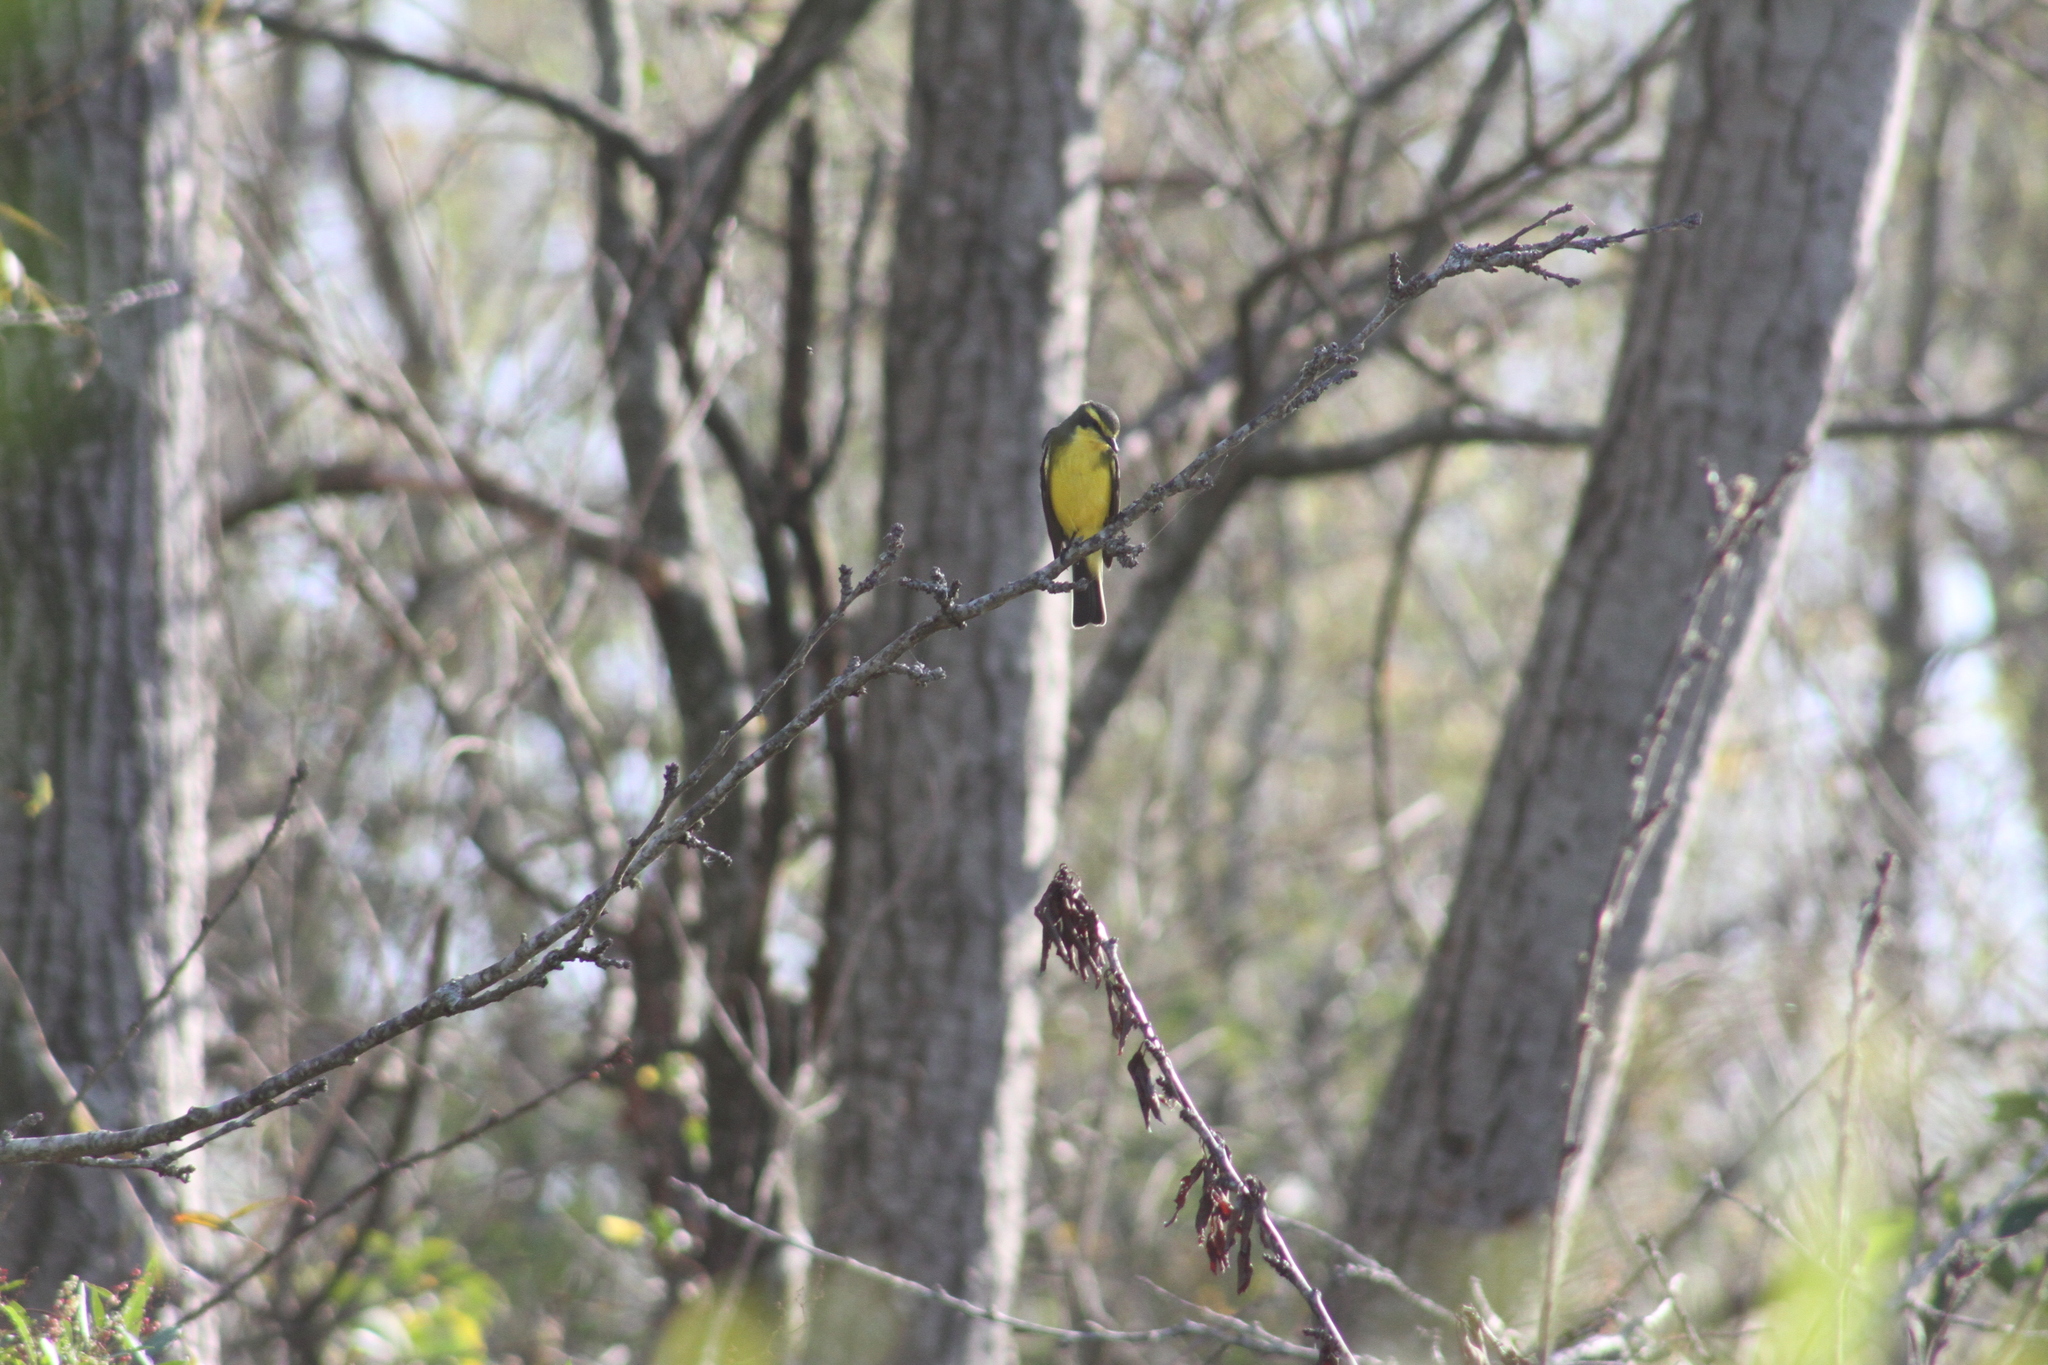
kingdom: Animalia
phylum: Chordata
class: Aves
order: Passeriformes
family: Tyrannidae
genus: Satrapa
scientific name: Satrapa icterophrys
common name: Yellow-browed tyrant
